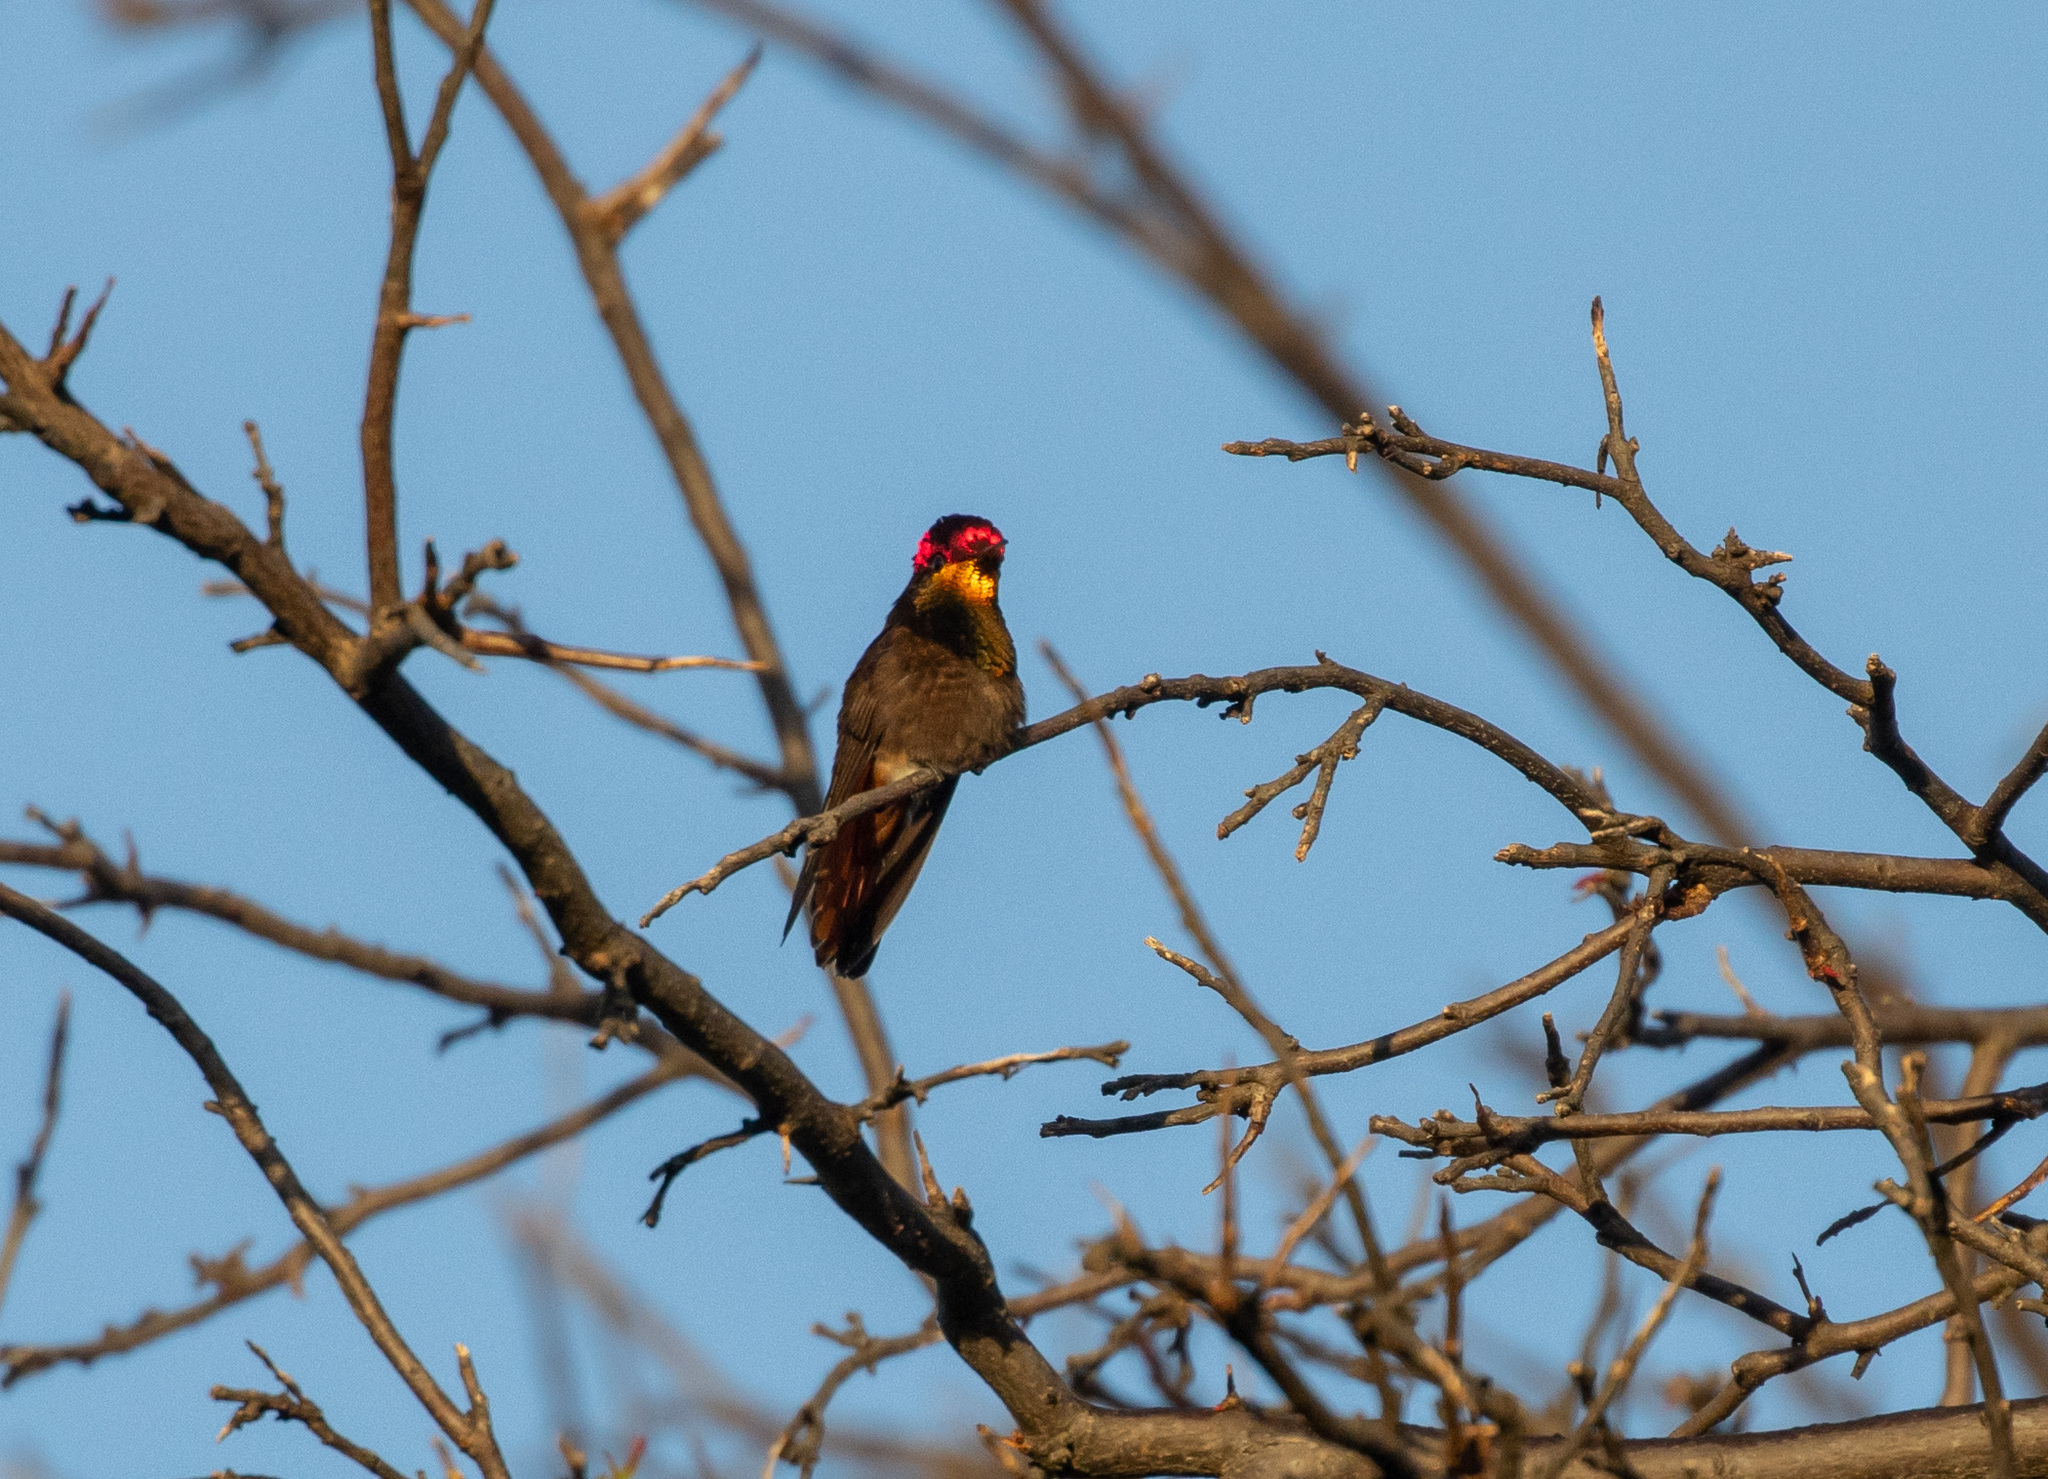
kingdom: Animalia
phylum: Chordata
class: Aves
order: Apodiformes
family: Trochilidae
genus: Chrysolampis
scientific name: Chrysolampis mosquitus
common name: Ruby-topaz hummingbird
